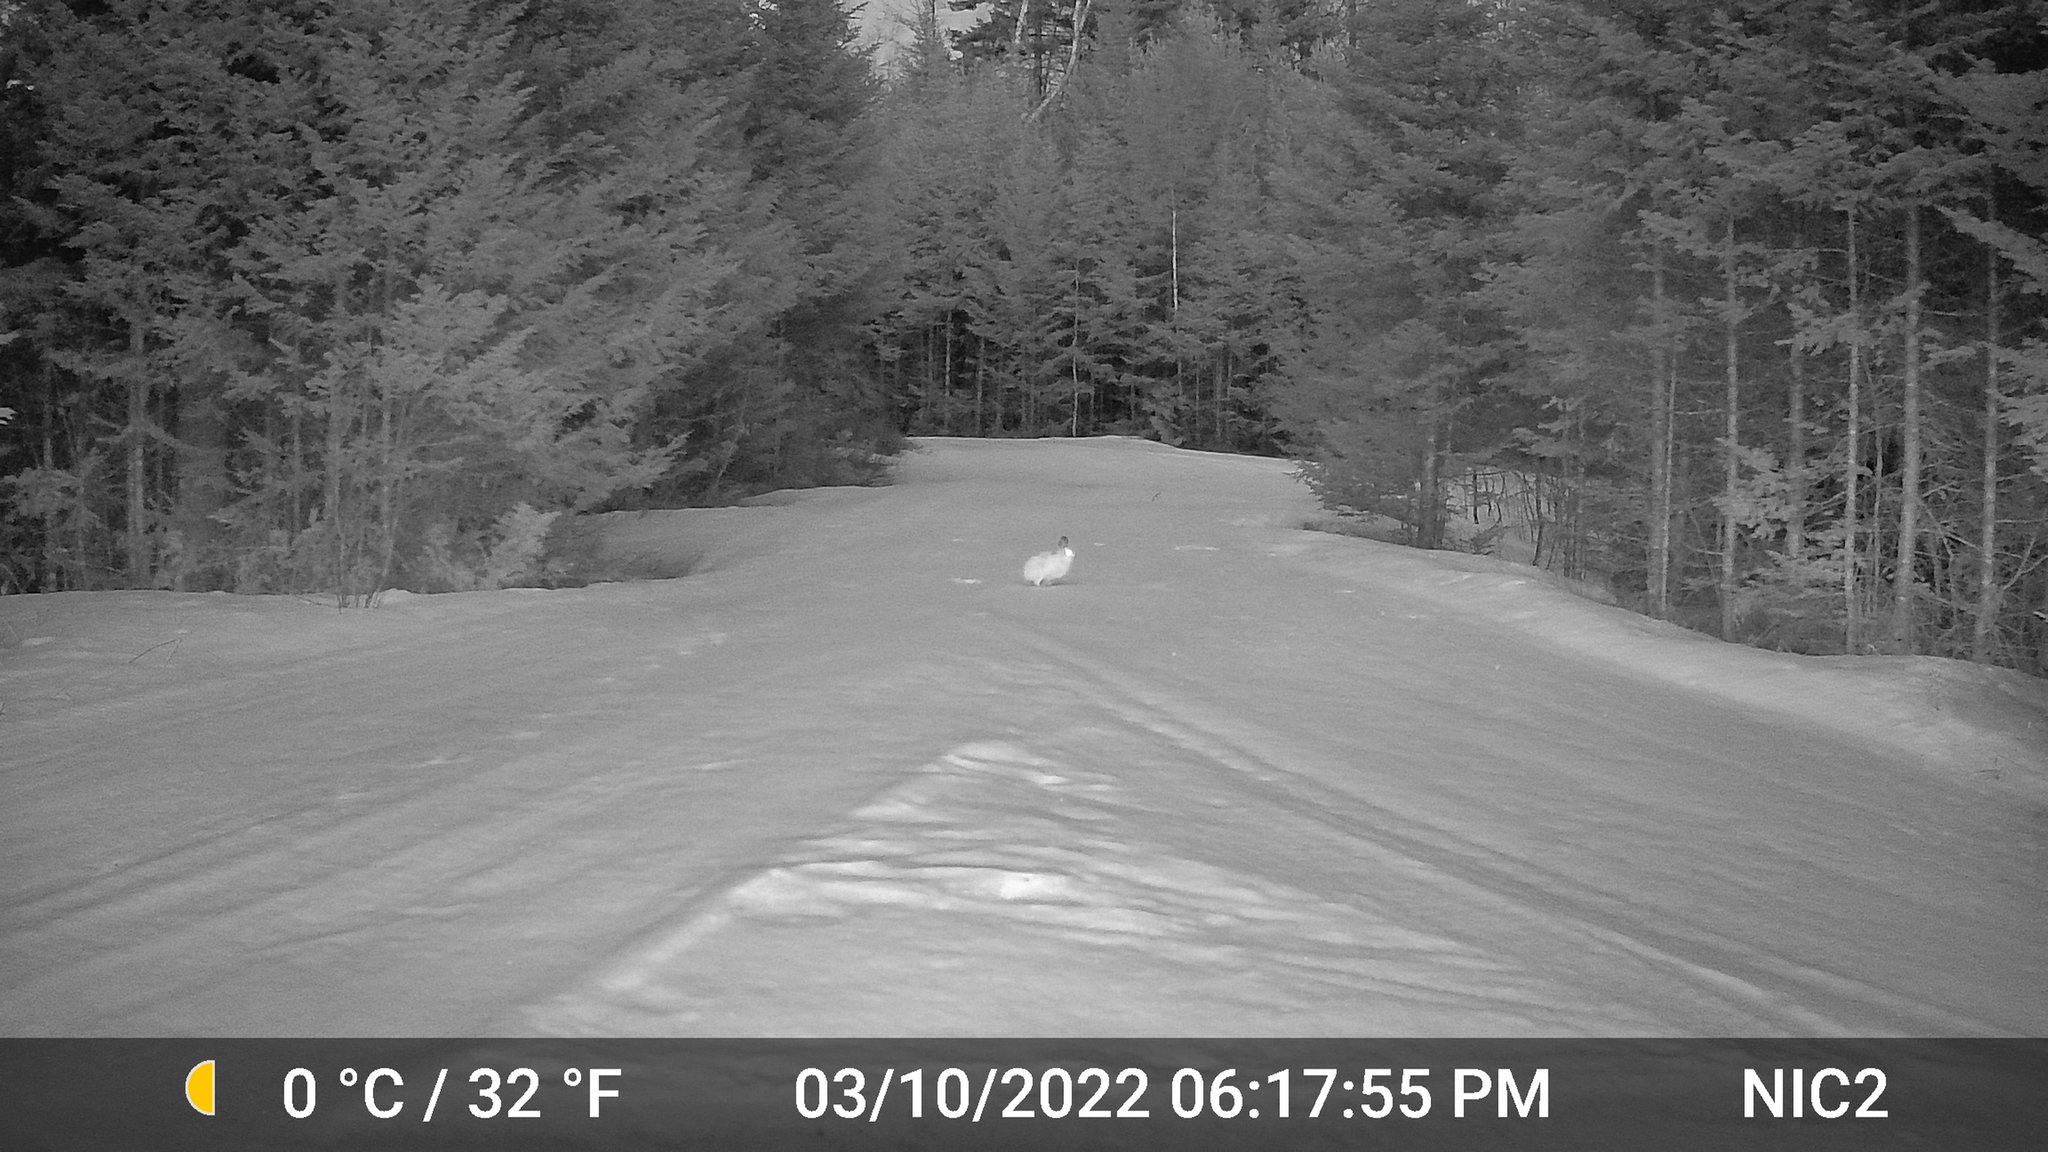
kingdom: Animalia
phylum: Chordata
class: Mammalia
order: Lagomorpha
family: Leporidae
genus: Lepus
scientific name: Lepus americanus
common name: Snowshoe hare
